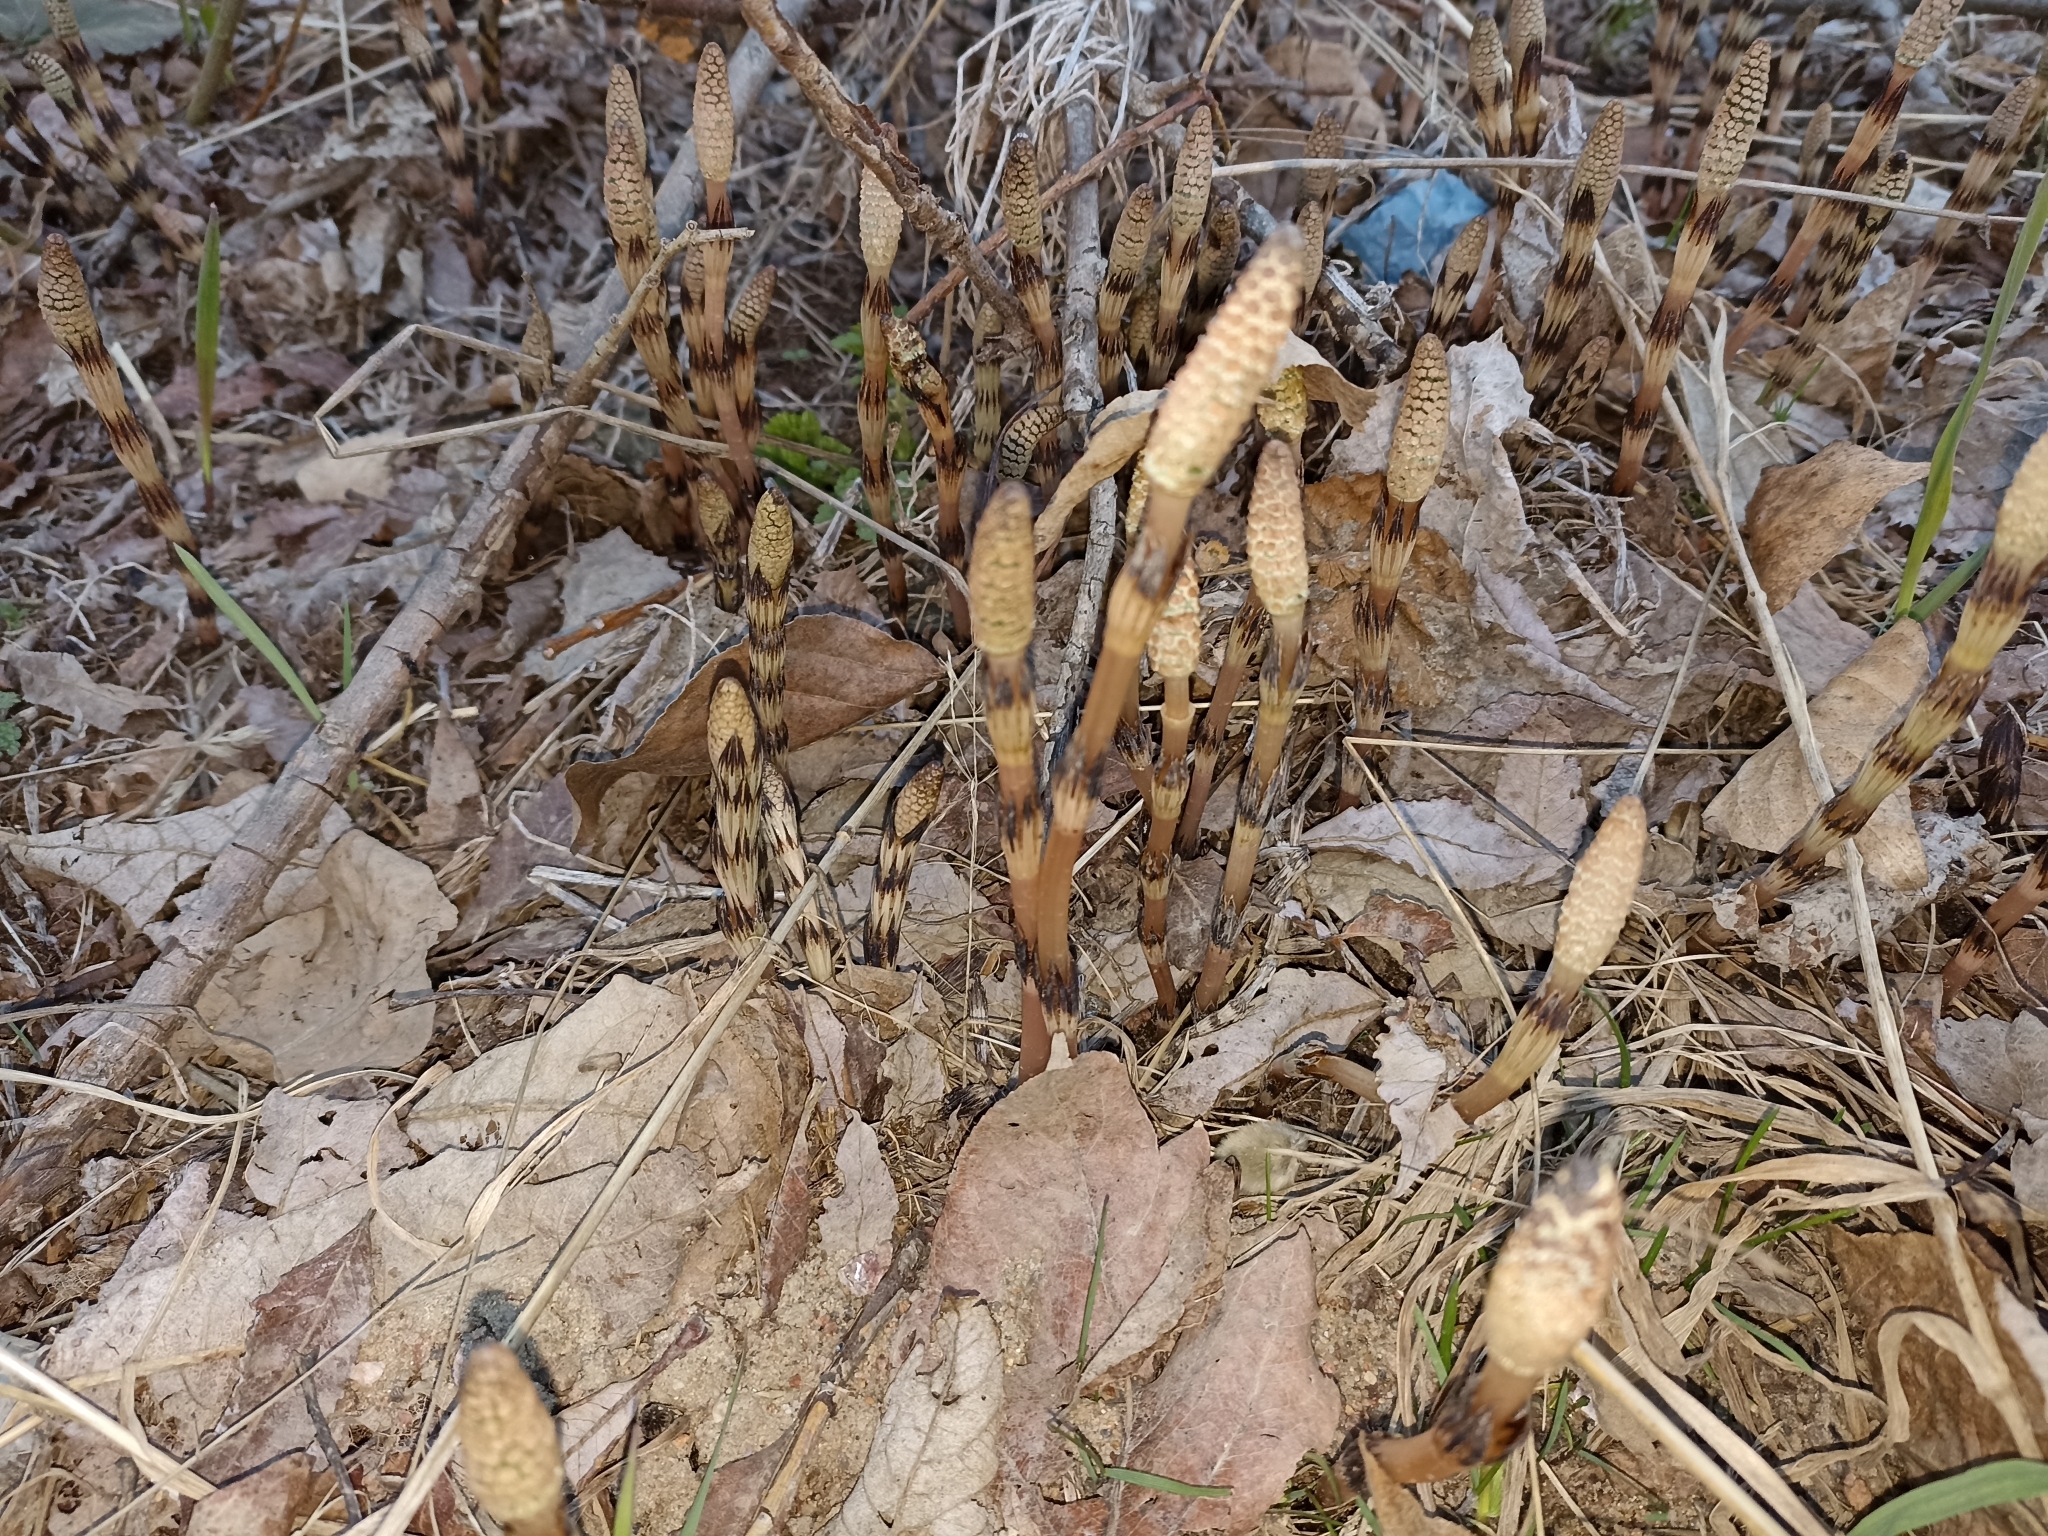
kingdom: Plantae
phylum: Tracheophyta
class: Polypodiopsida
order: Equisetales
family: Equisetaceae
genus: Equisetum
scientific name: Equisetum arvense
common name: Field horsetail
